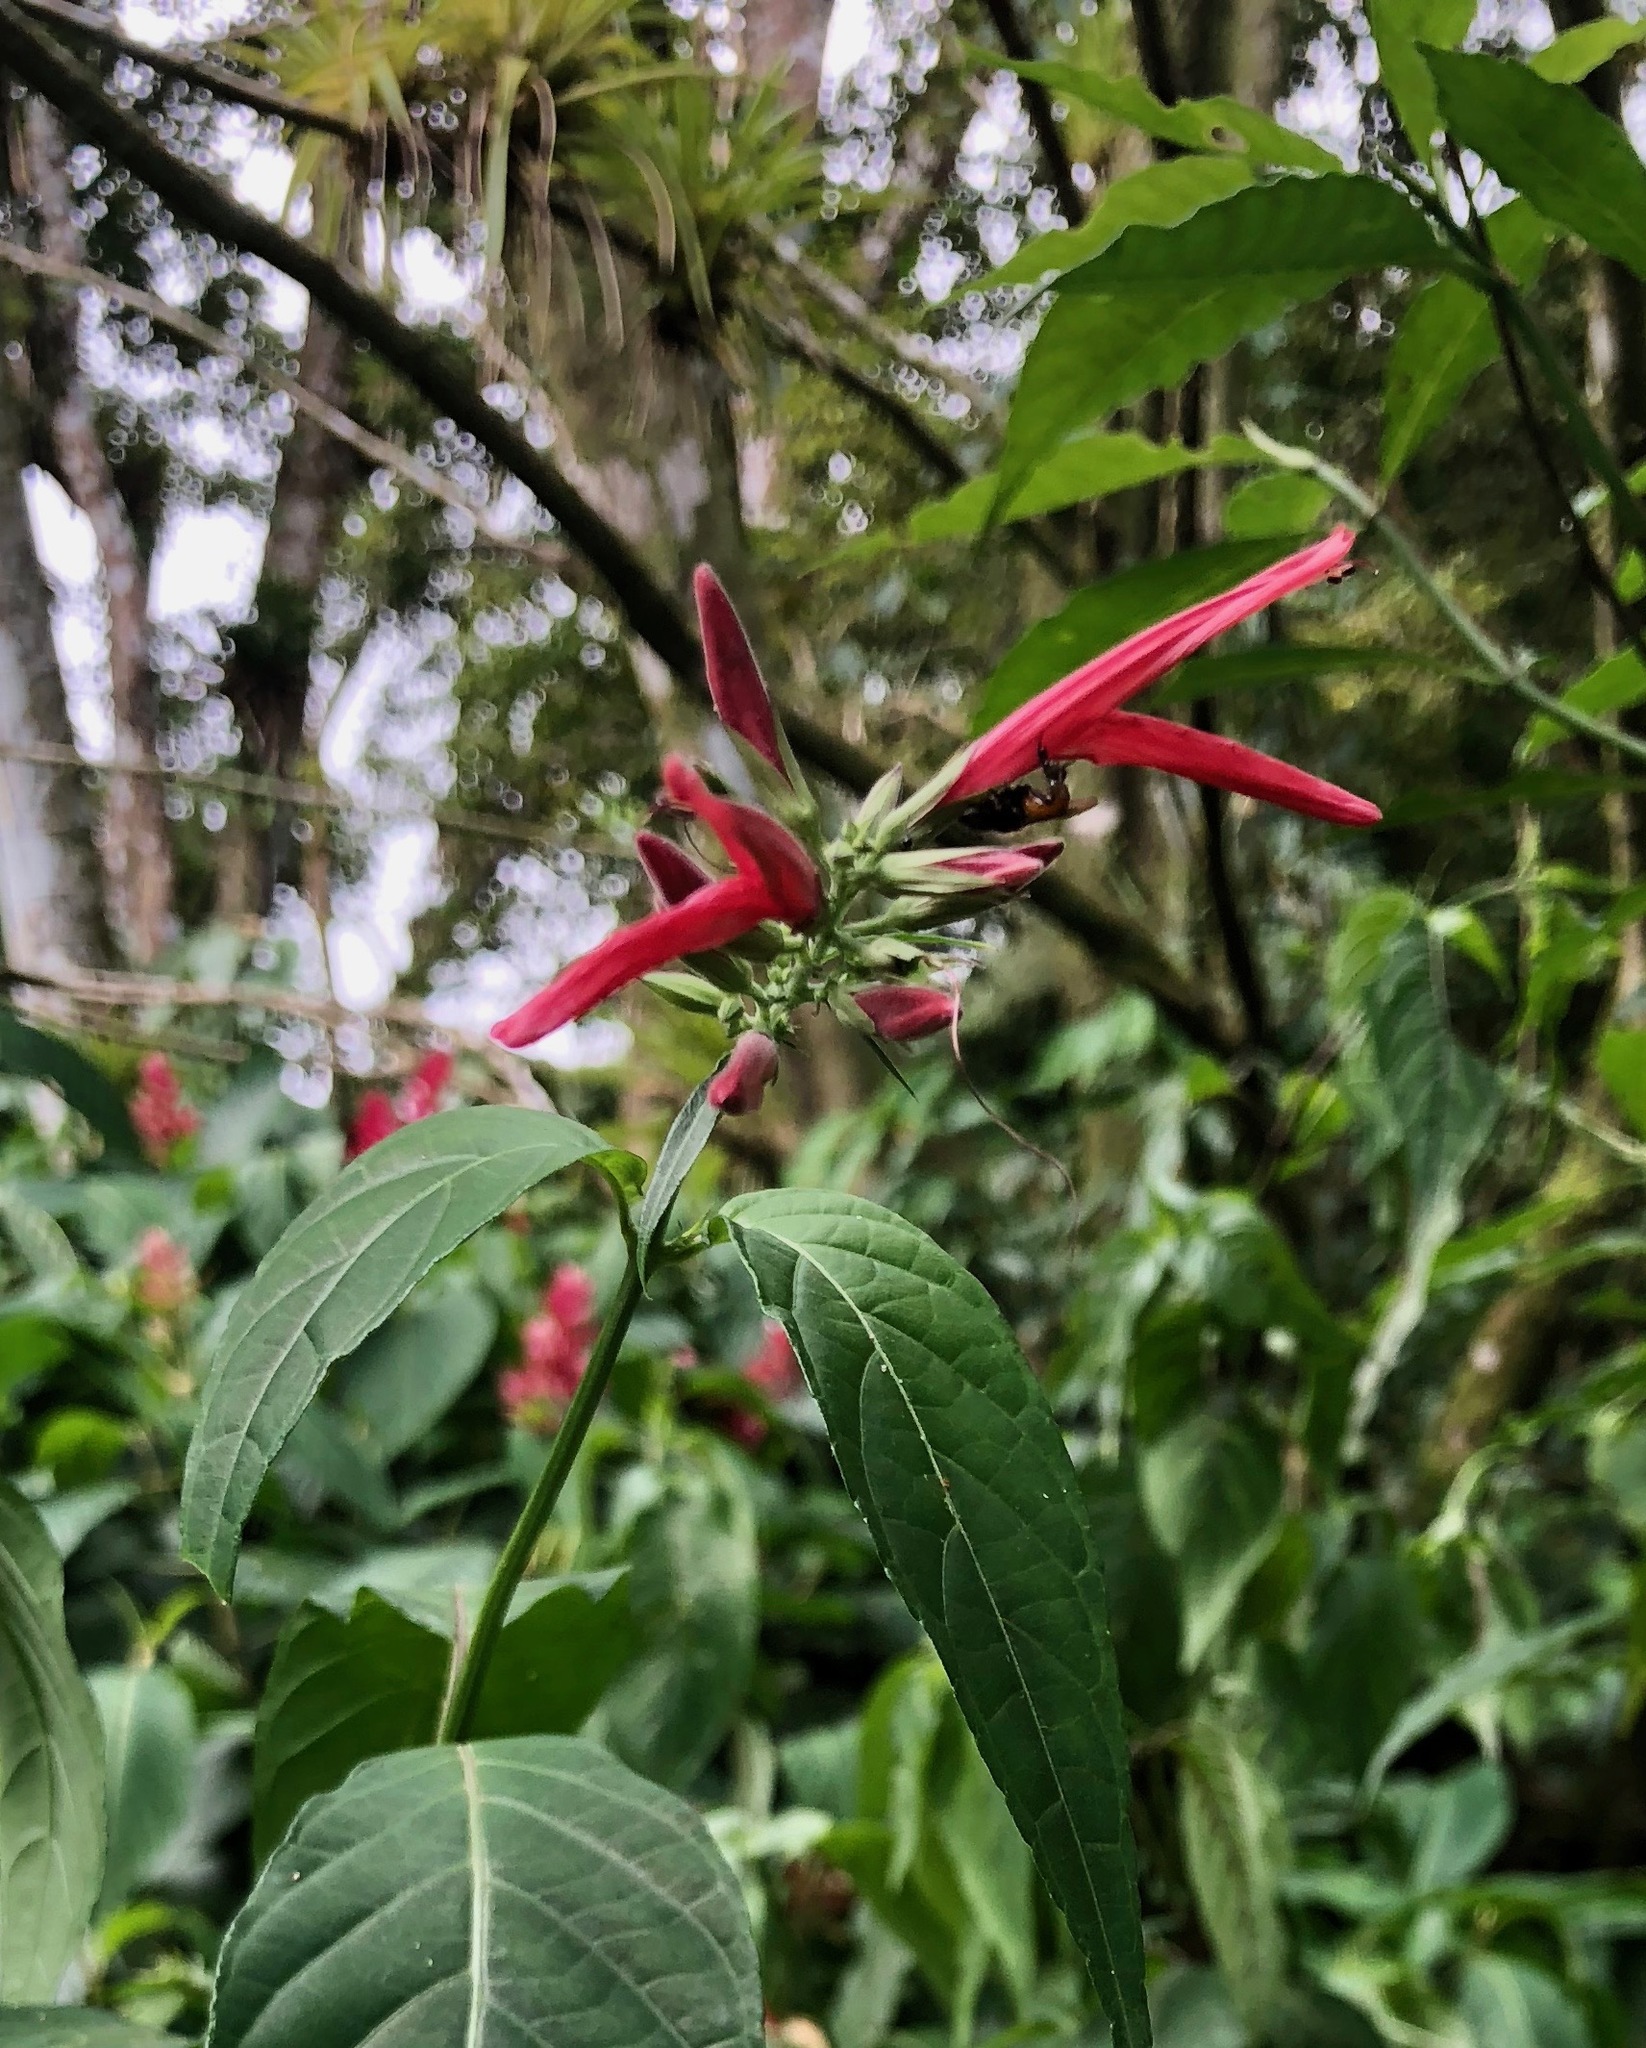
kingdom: Plantae
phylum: Tracheophyta
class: Magnoliopsida
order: Lamiales
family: Acanthaceae
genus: Dianthera
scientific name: Dianthera secunda
